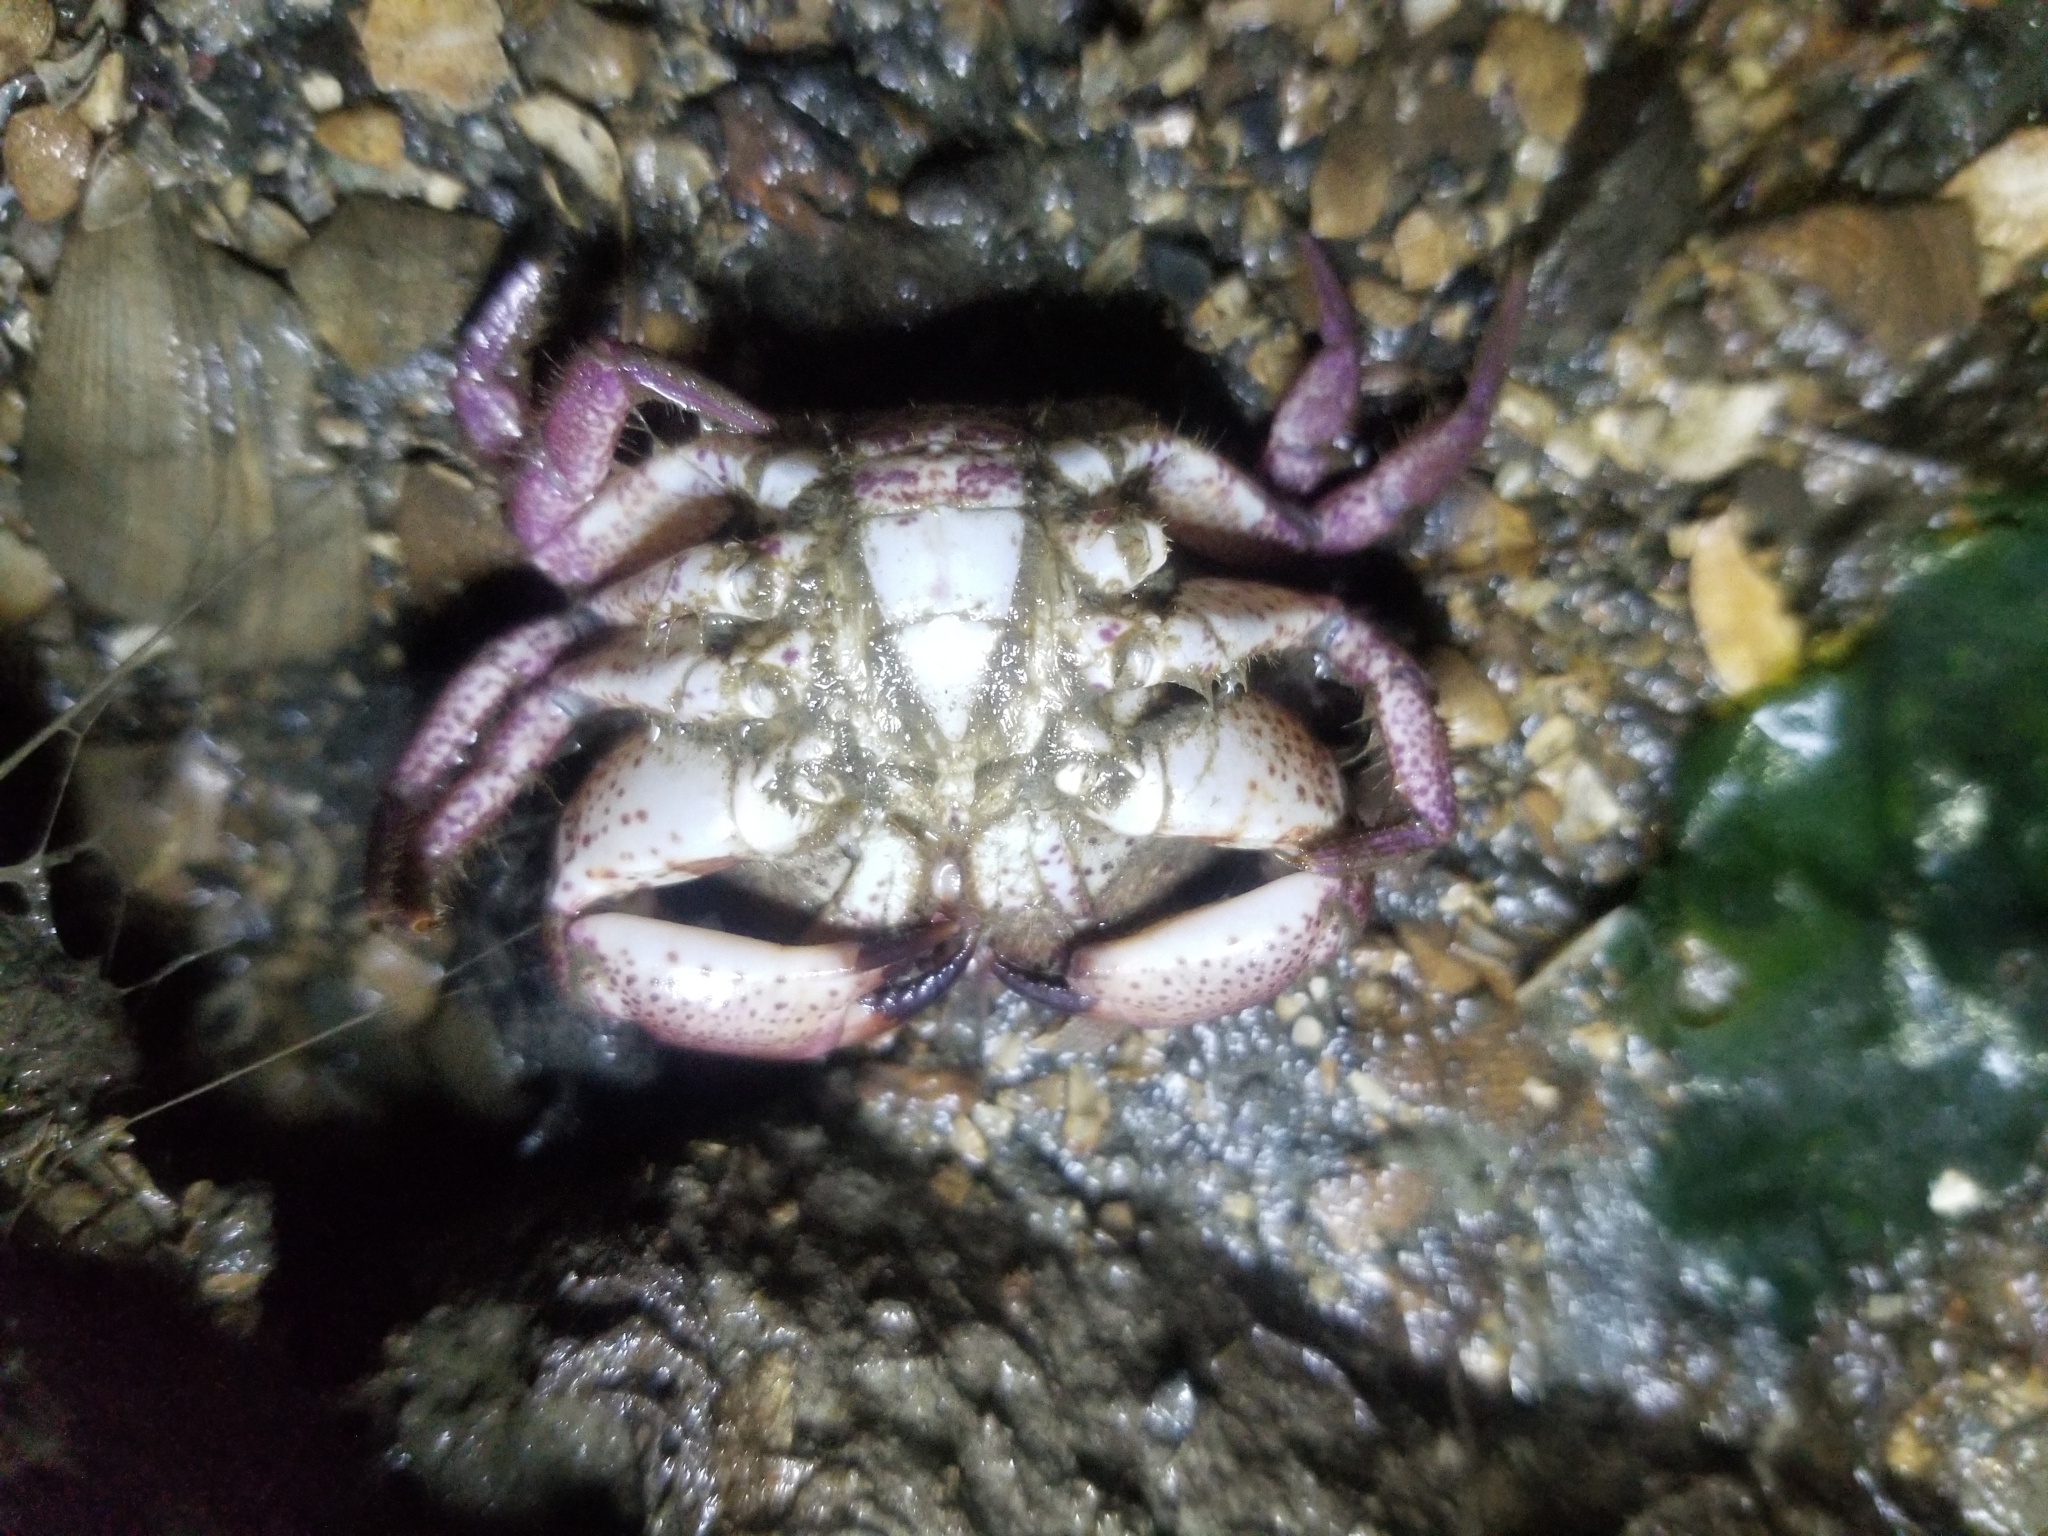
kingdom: Animalia
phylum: Arthropoda
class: Malacostraca
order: Decapoda
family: Cancridae
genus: Romaleon
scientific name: Romaleon antennarium
